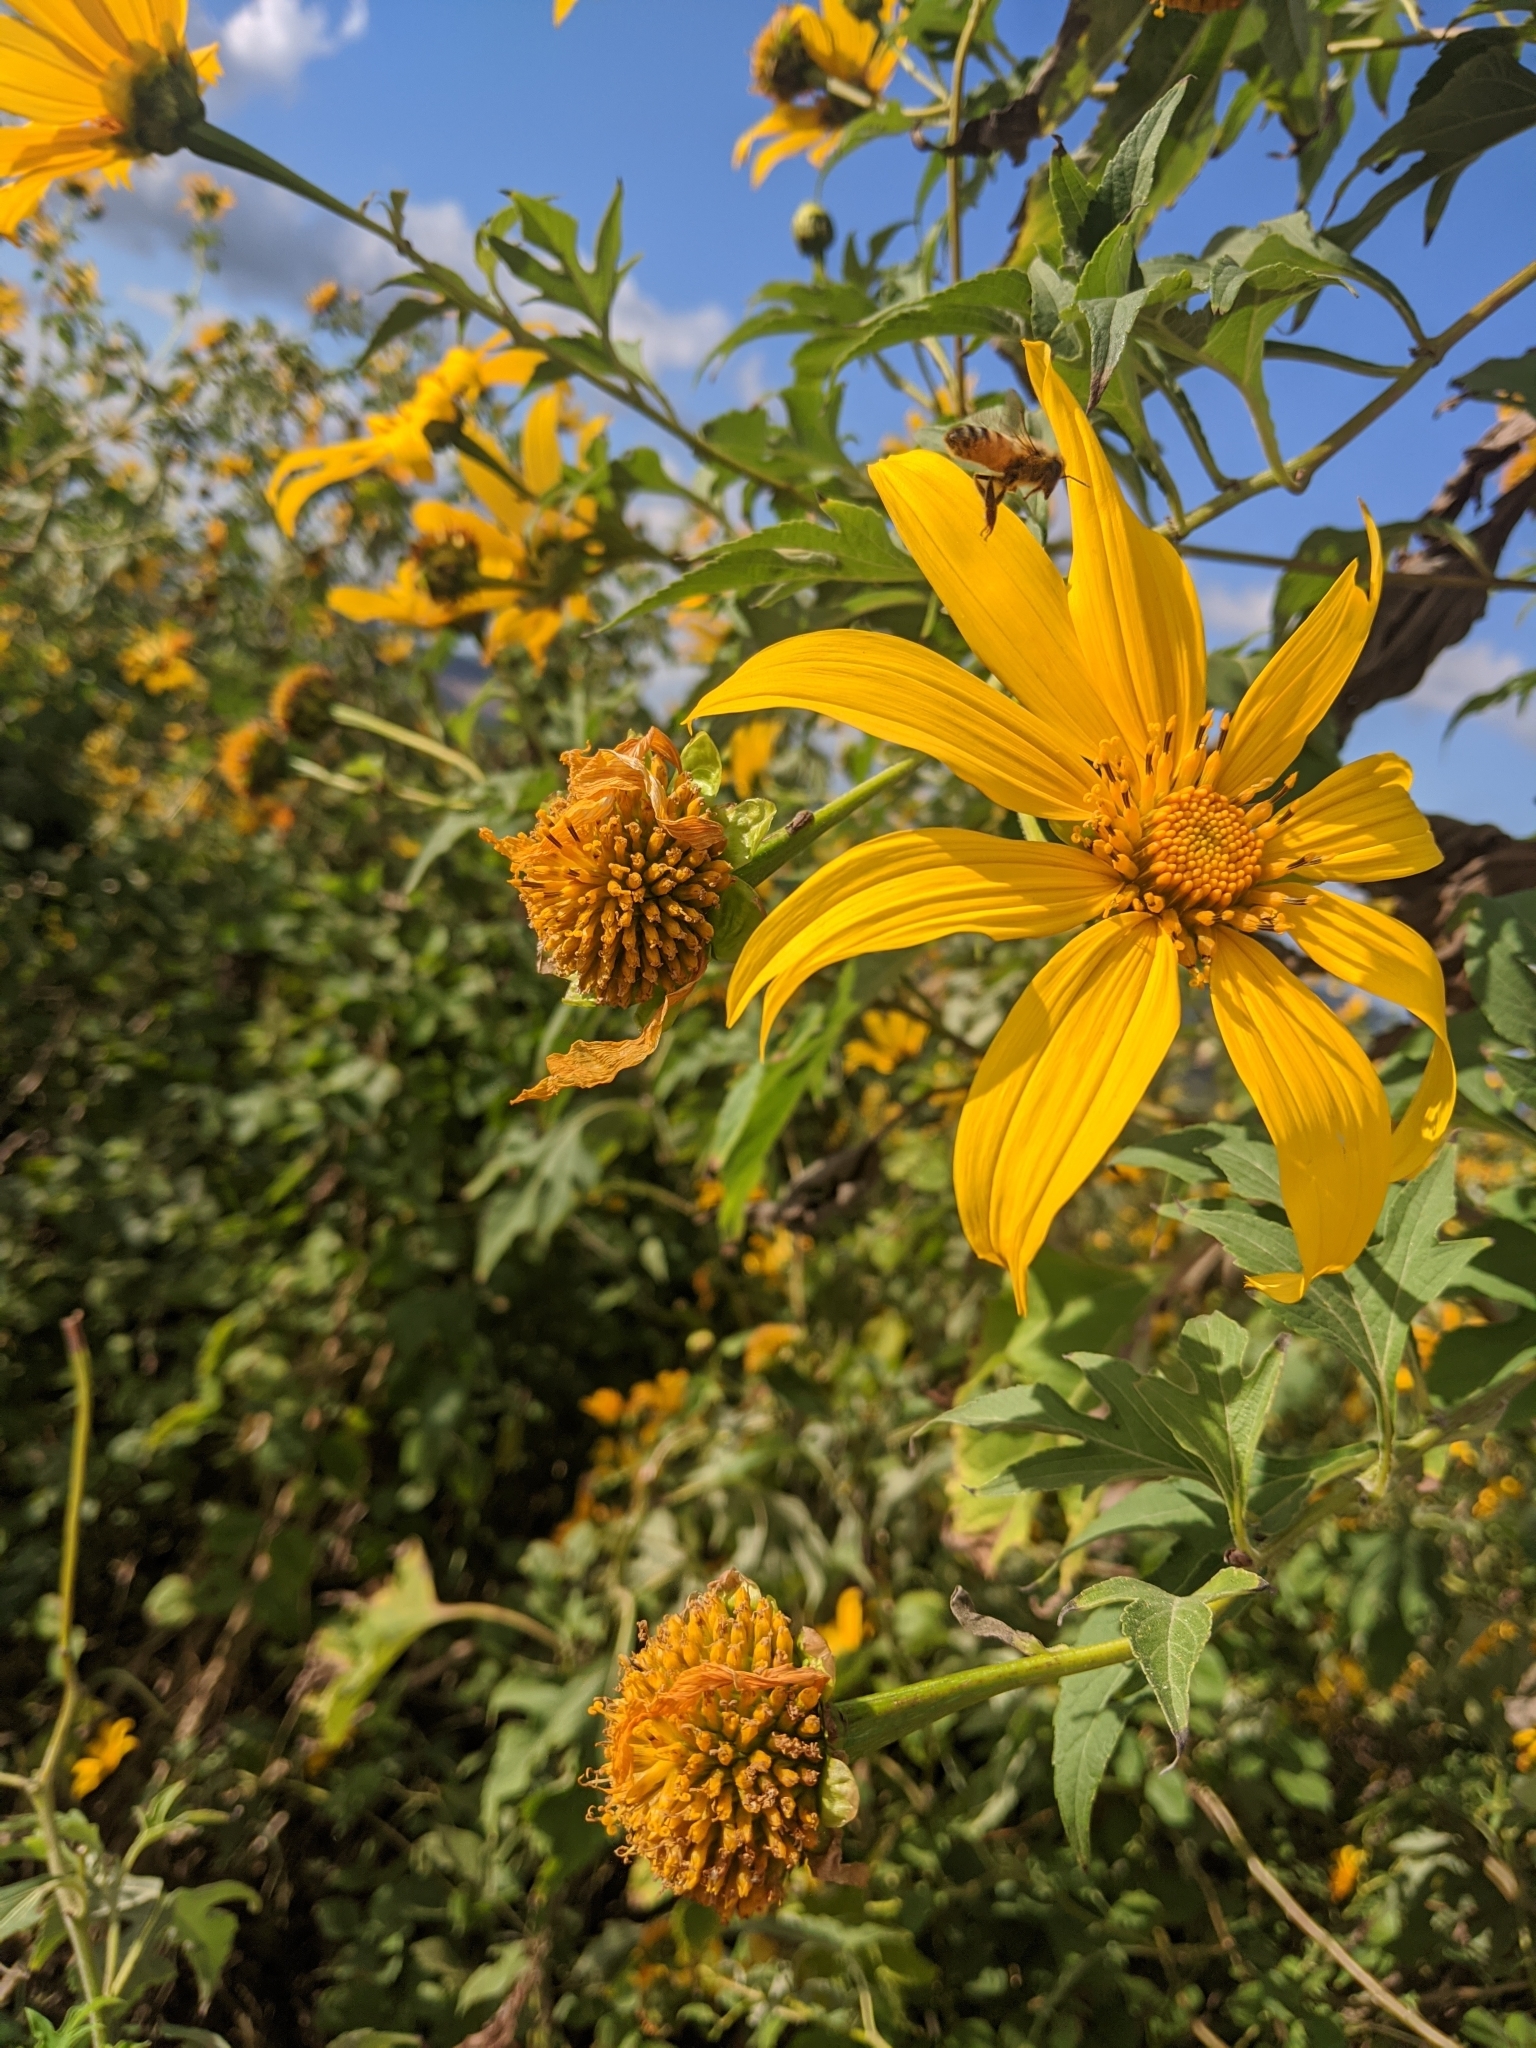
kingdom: Animalia
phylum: Arthropoda
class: Insecta
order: Hymenoptera
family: Apidae
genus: Apis
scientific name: Apis mellifera
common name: Honey bee
